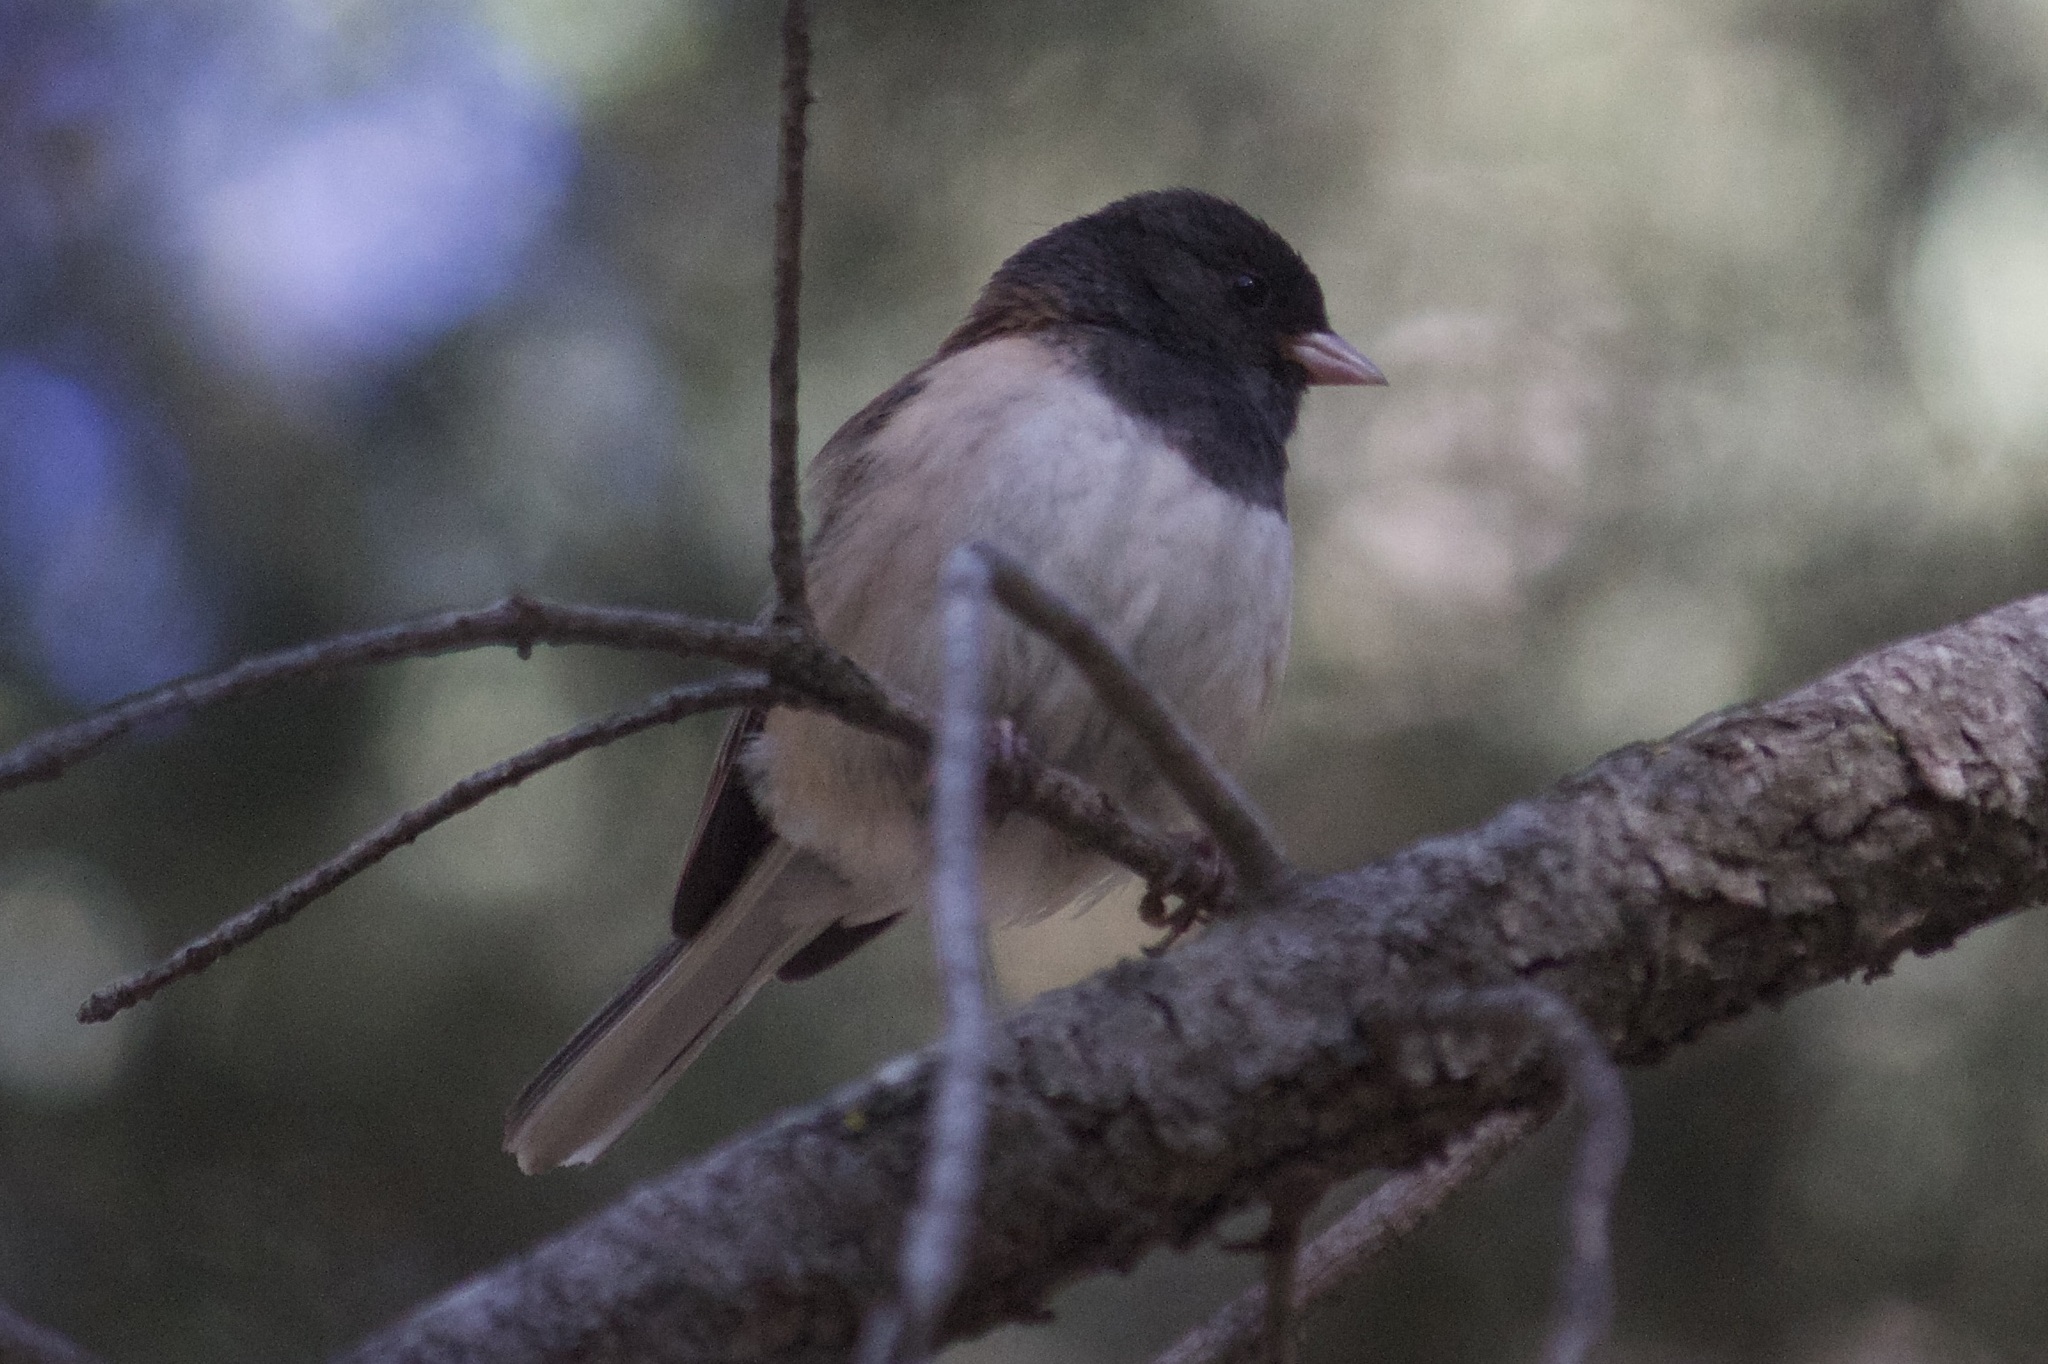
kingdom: Animalia
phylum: Chordata
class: Aves
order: Passeriformes
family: Passerellidae
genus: Junco
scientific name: Junco hyemalis
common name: Dark-eyed junco
